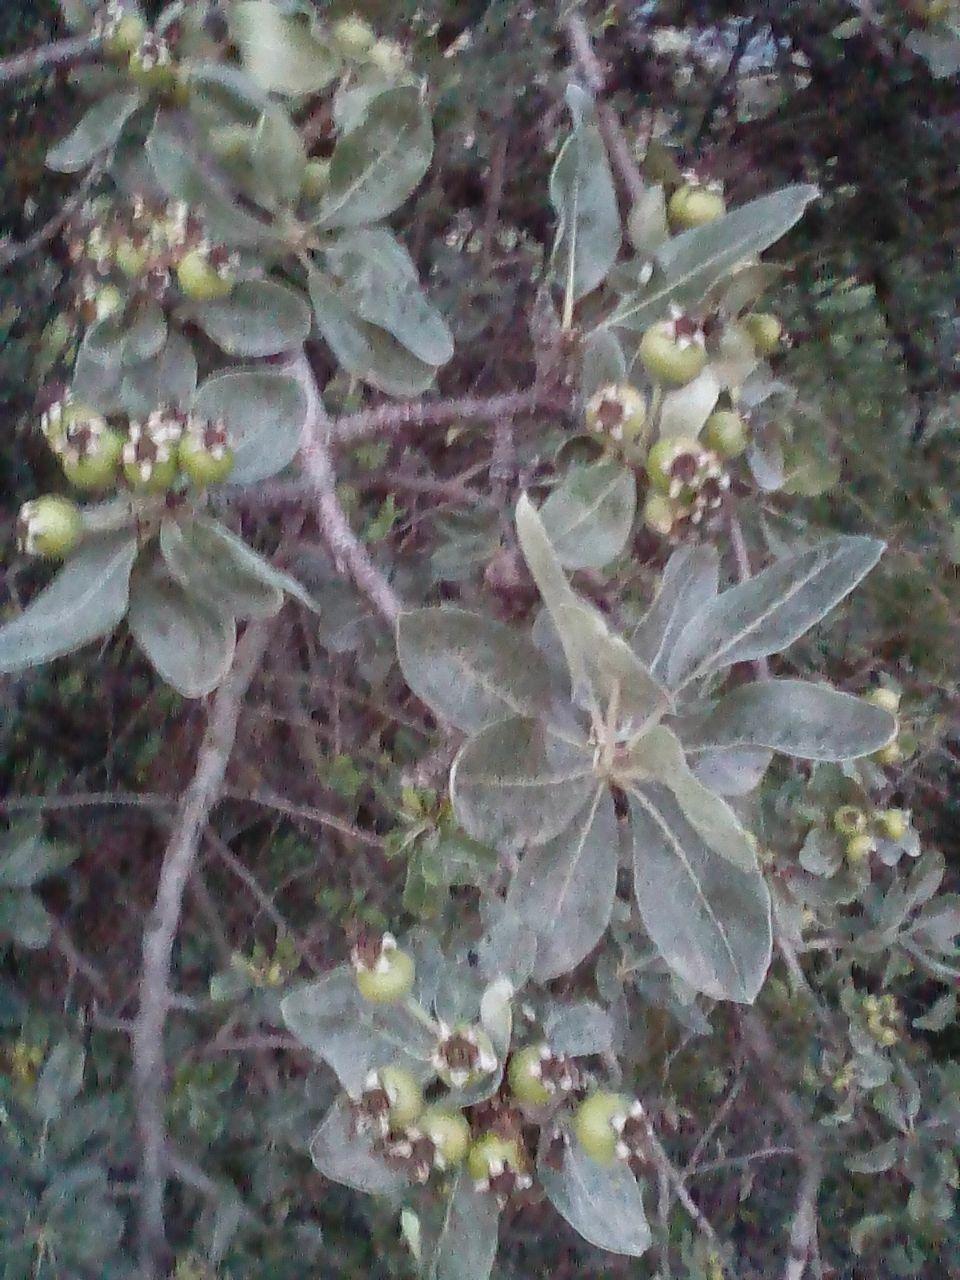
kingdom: Plantae
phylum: Tracheophyta
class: Magnoliopsida
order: Rosales
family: Rosaceae
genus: Pyrus
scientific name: Pyrus elaeagrifolia
